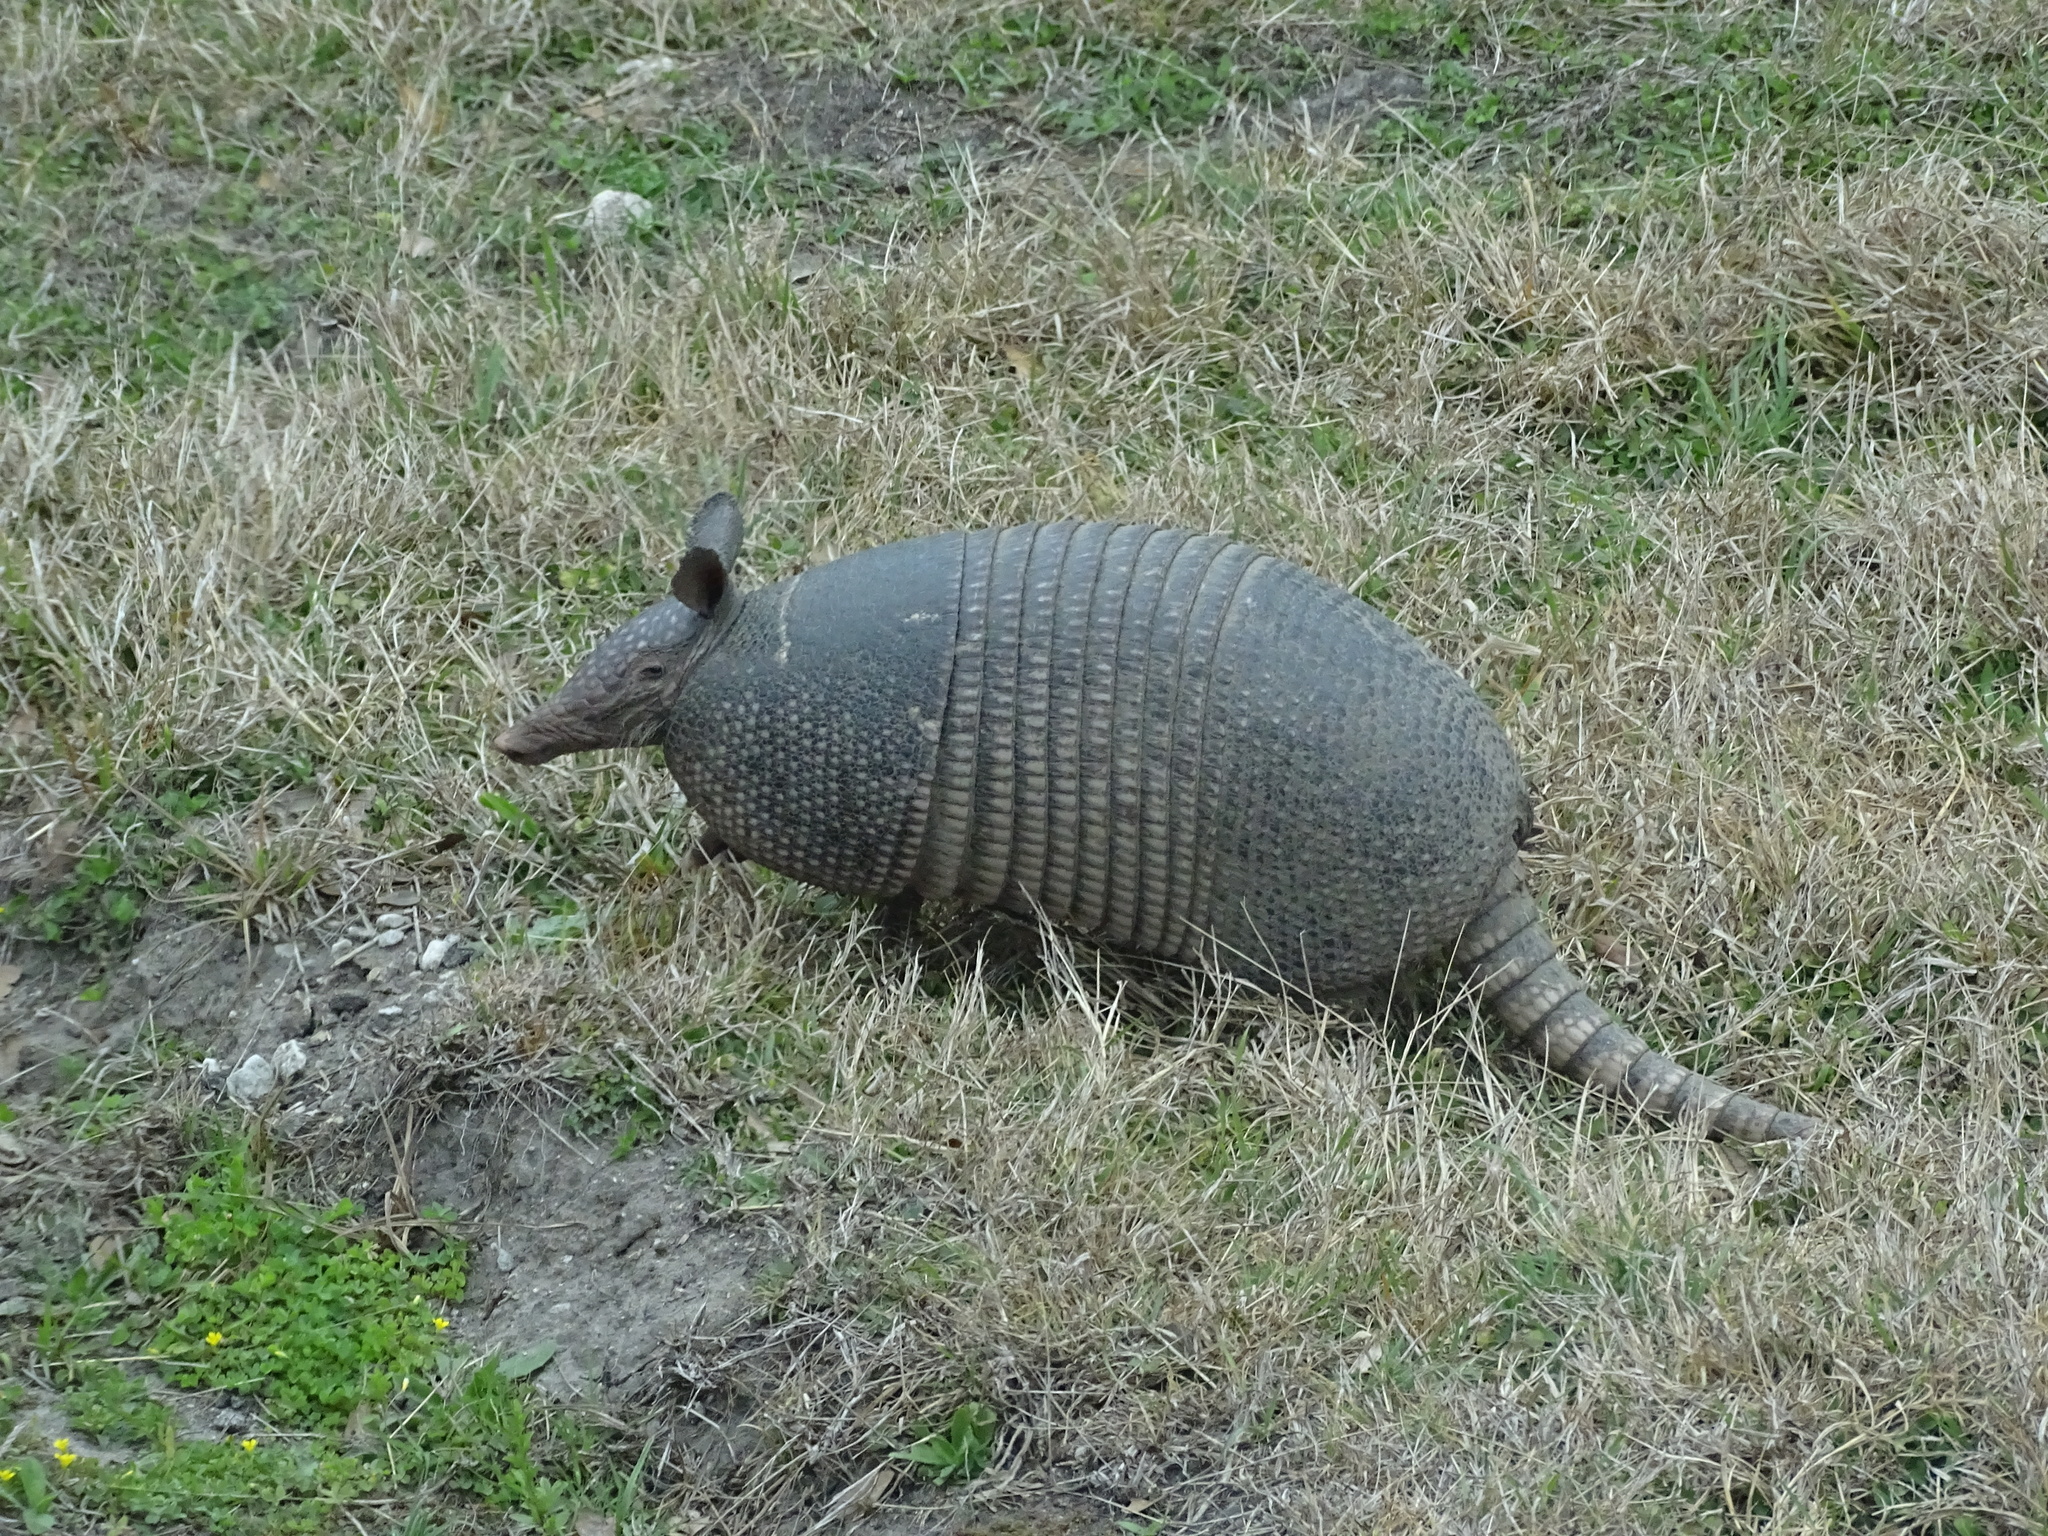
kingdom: Animalia
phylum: Chordata
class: Mammalia
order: Cingulata
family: Dasypodidae
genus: Dasypus
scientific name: Dasypus novemcinctus
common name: Nine-banded armadillo
